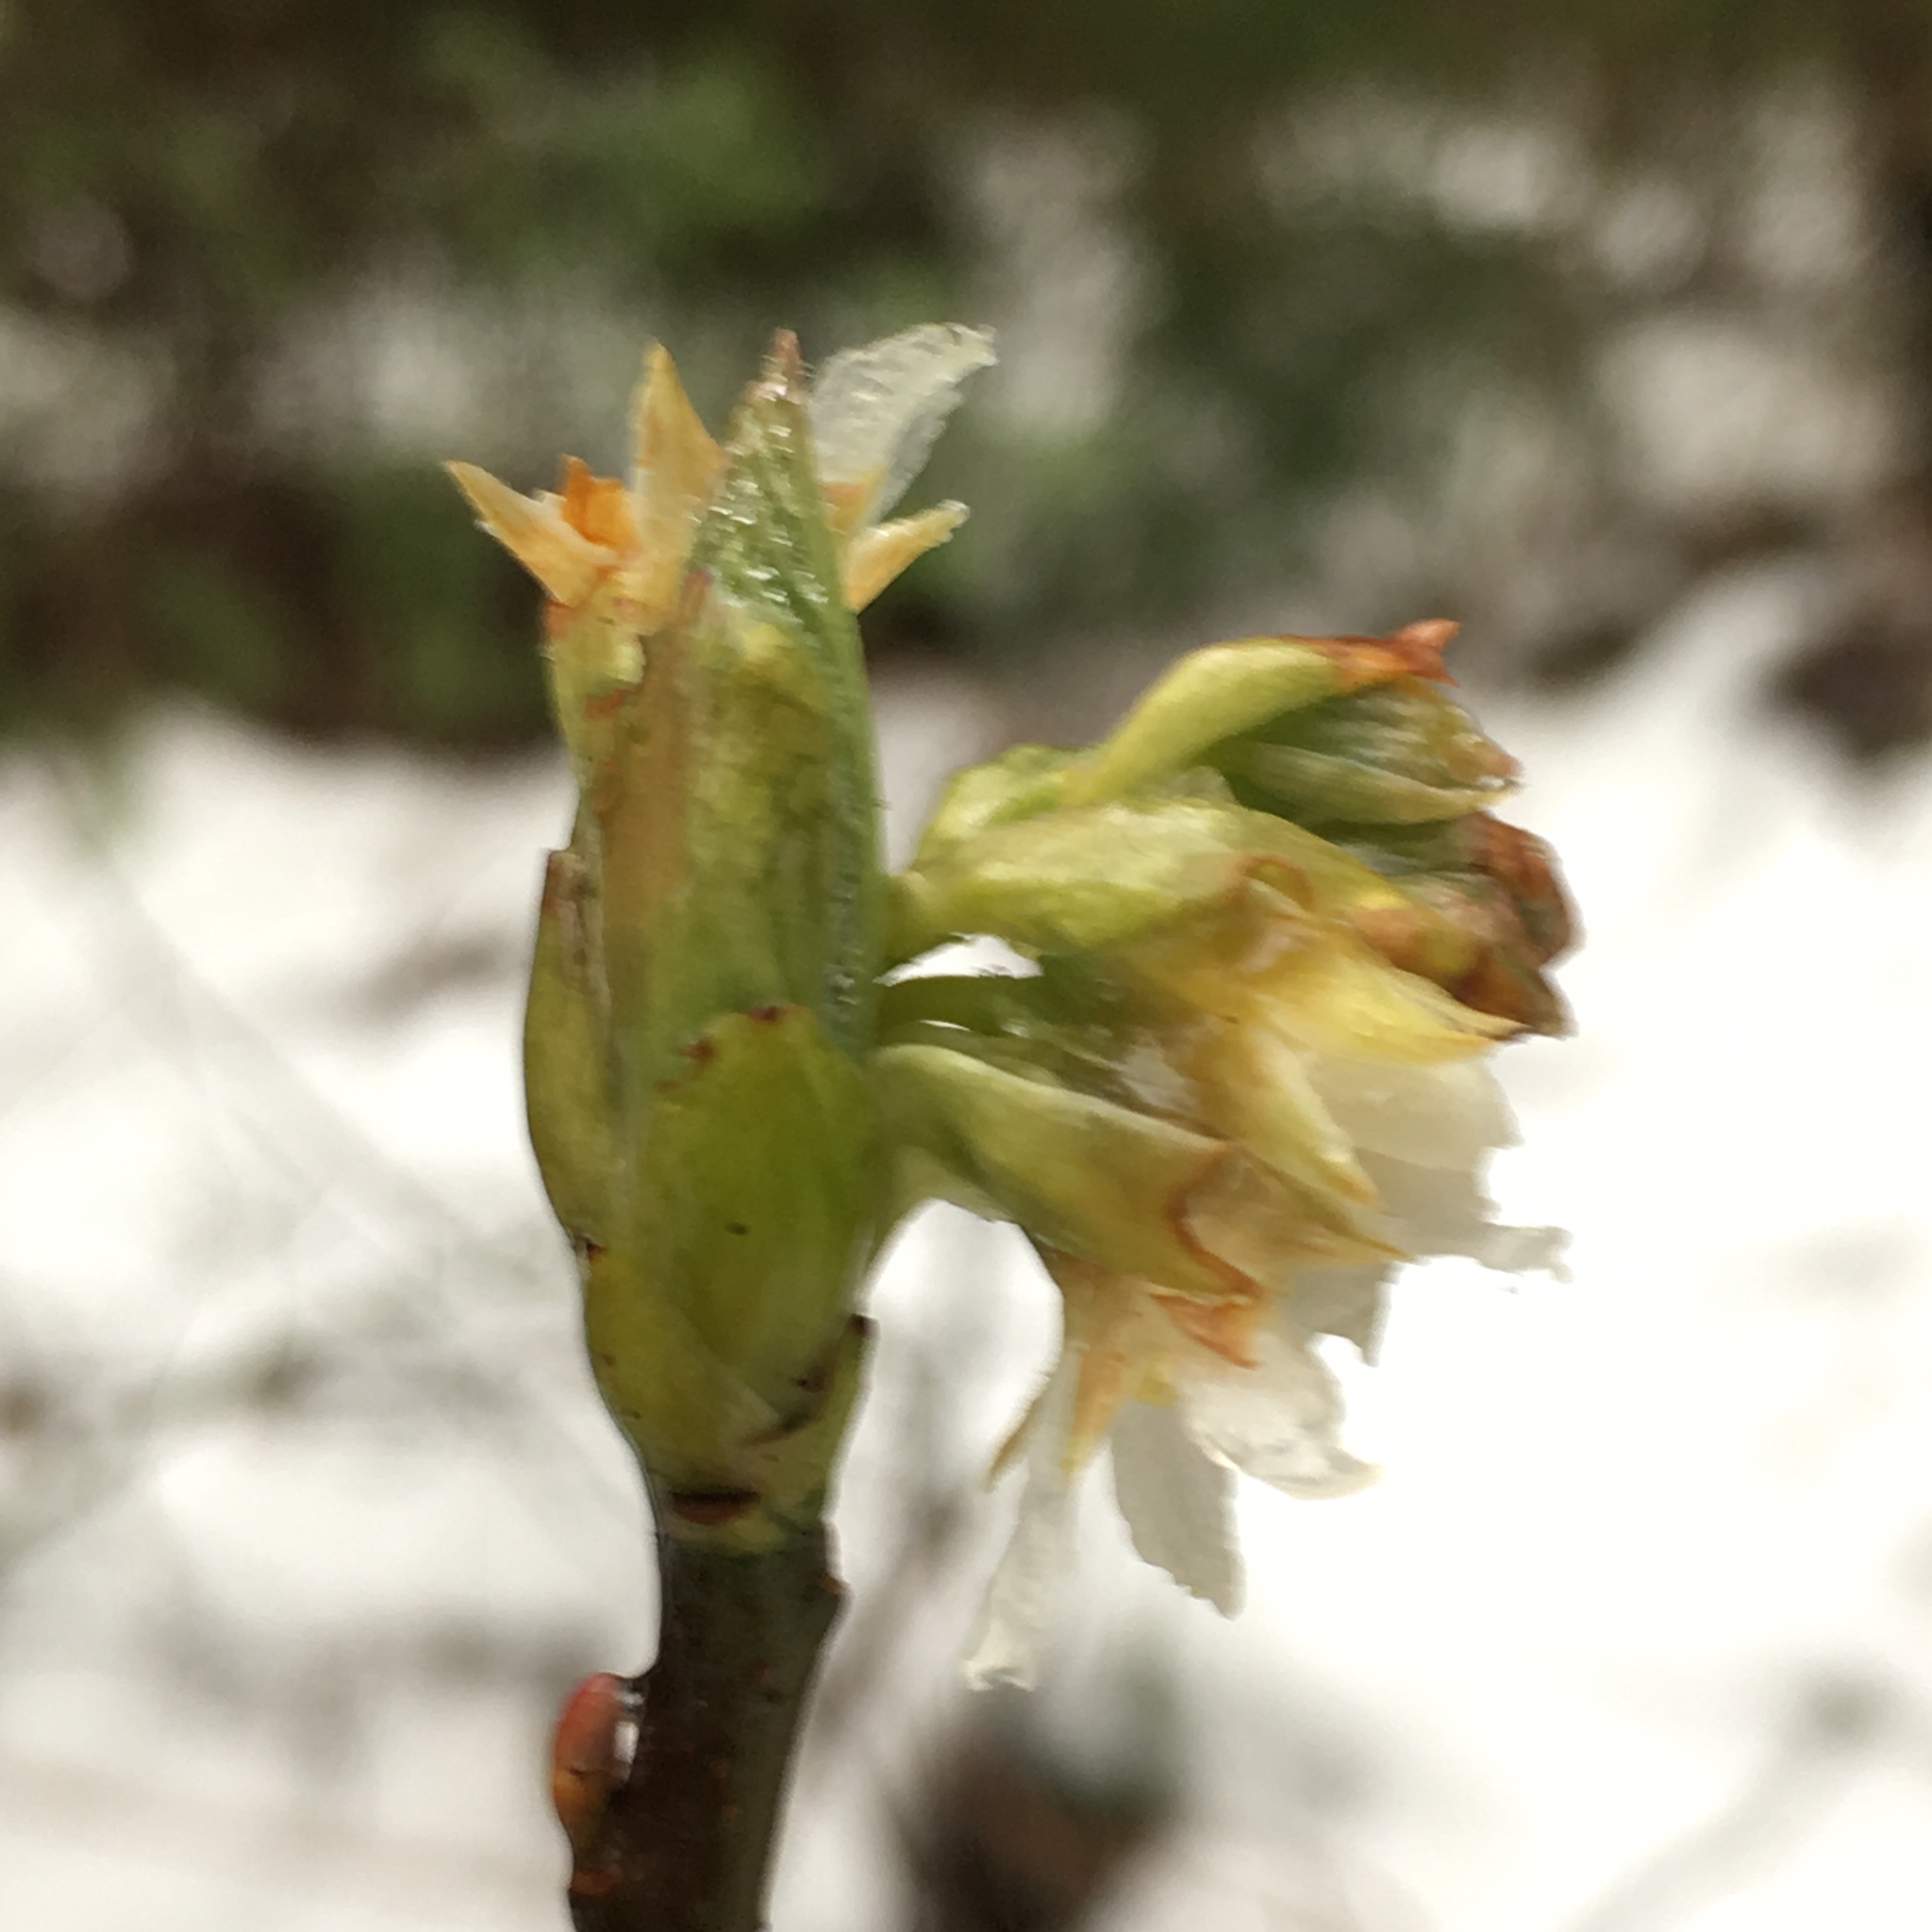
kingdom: Plantae
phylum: Tracheophyta
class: Magnoliopsida
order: Rosales
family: Rosaceae
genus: Oemleria
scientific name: Oemleria cerasiformis
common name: Osoberry
